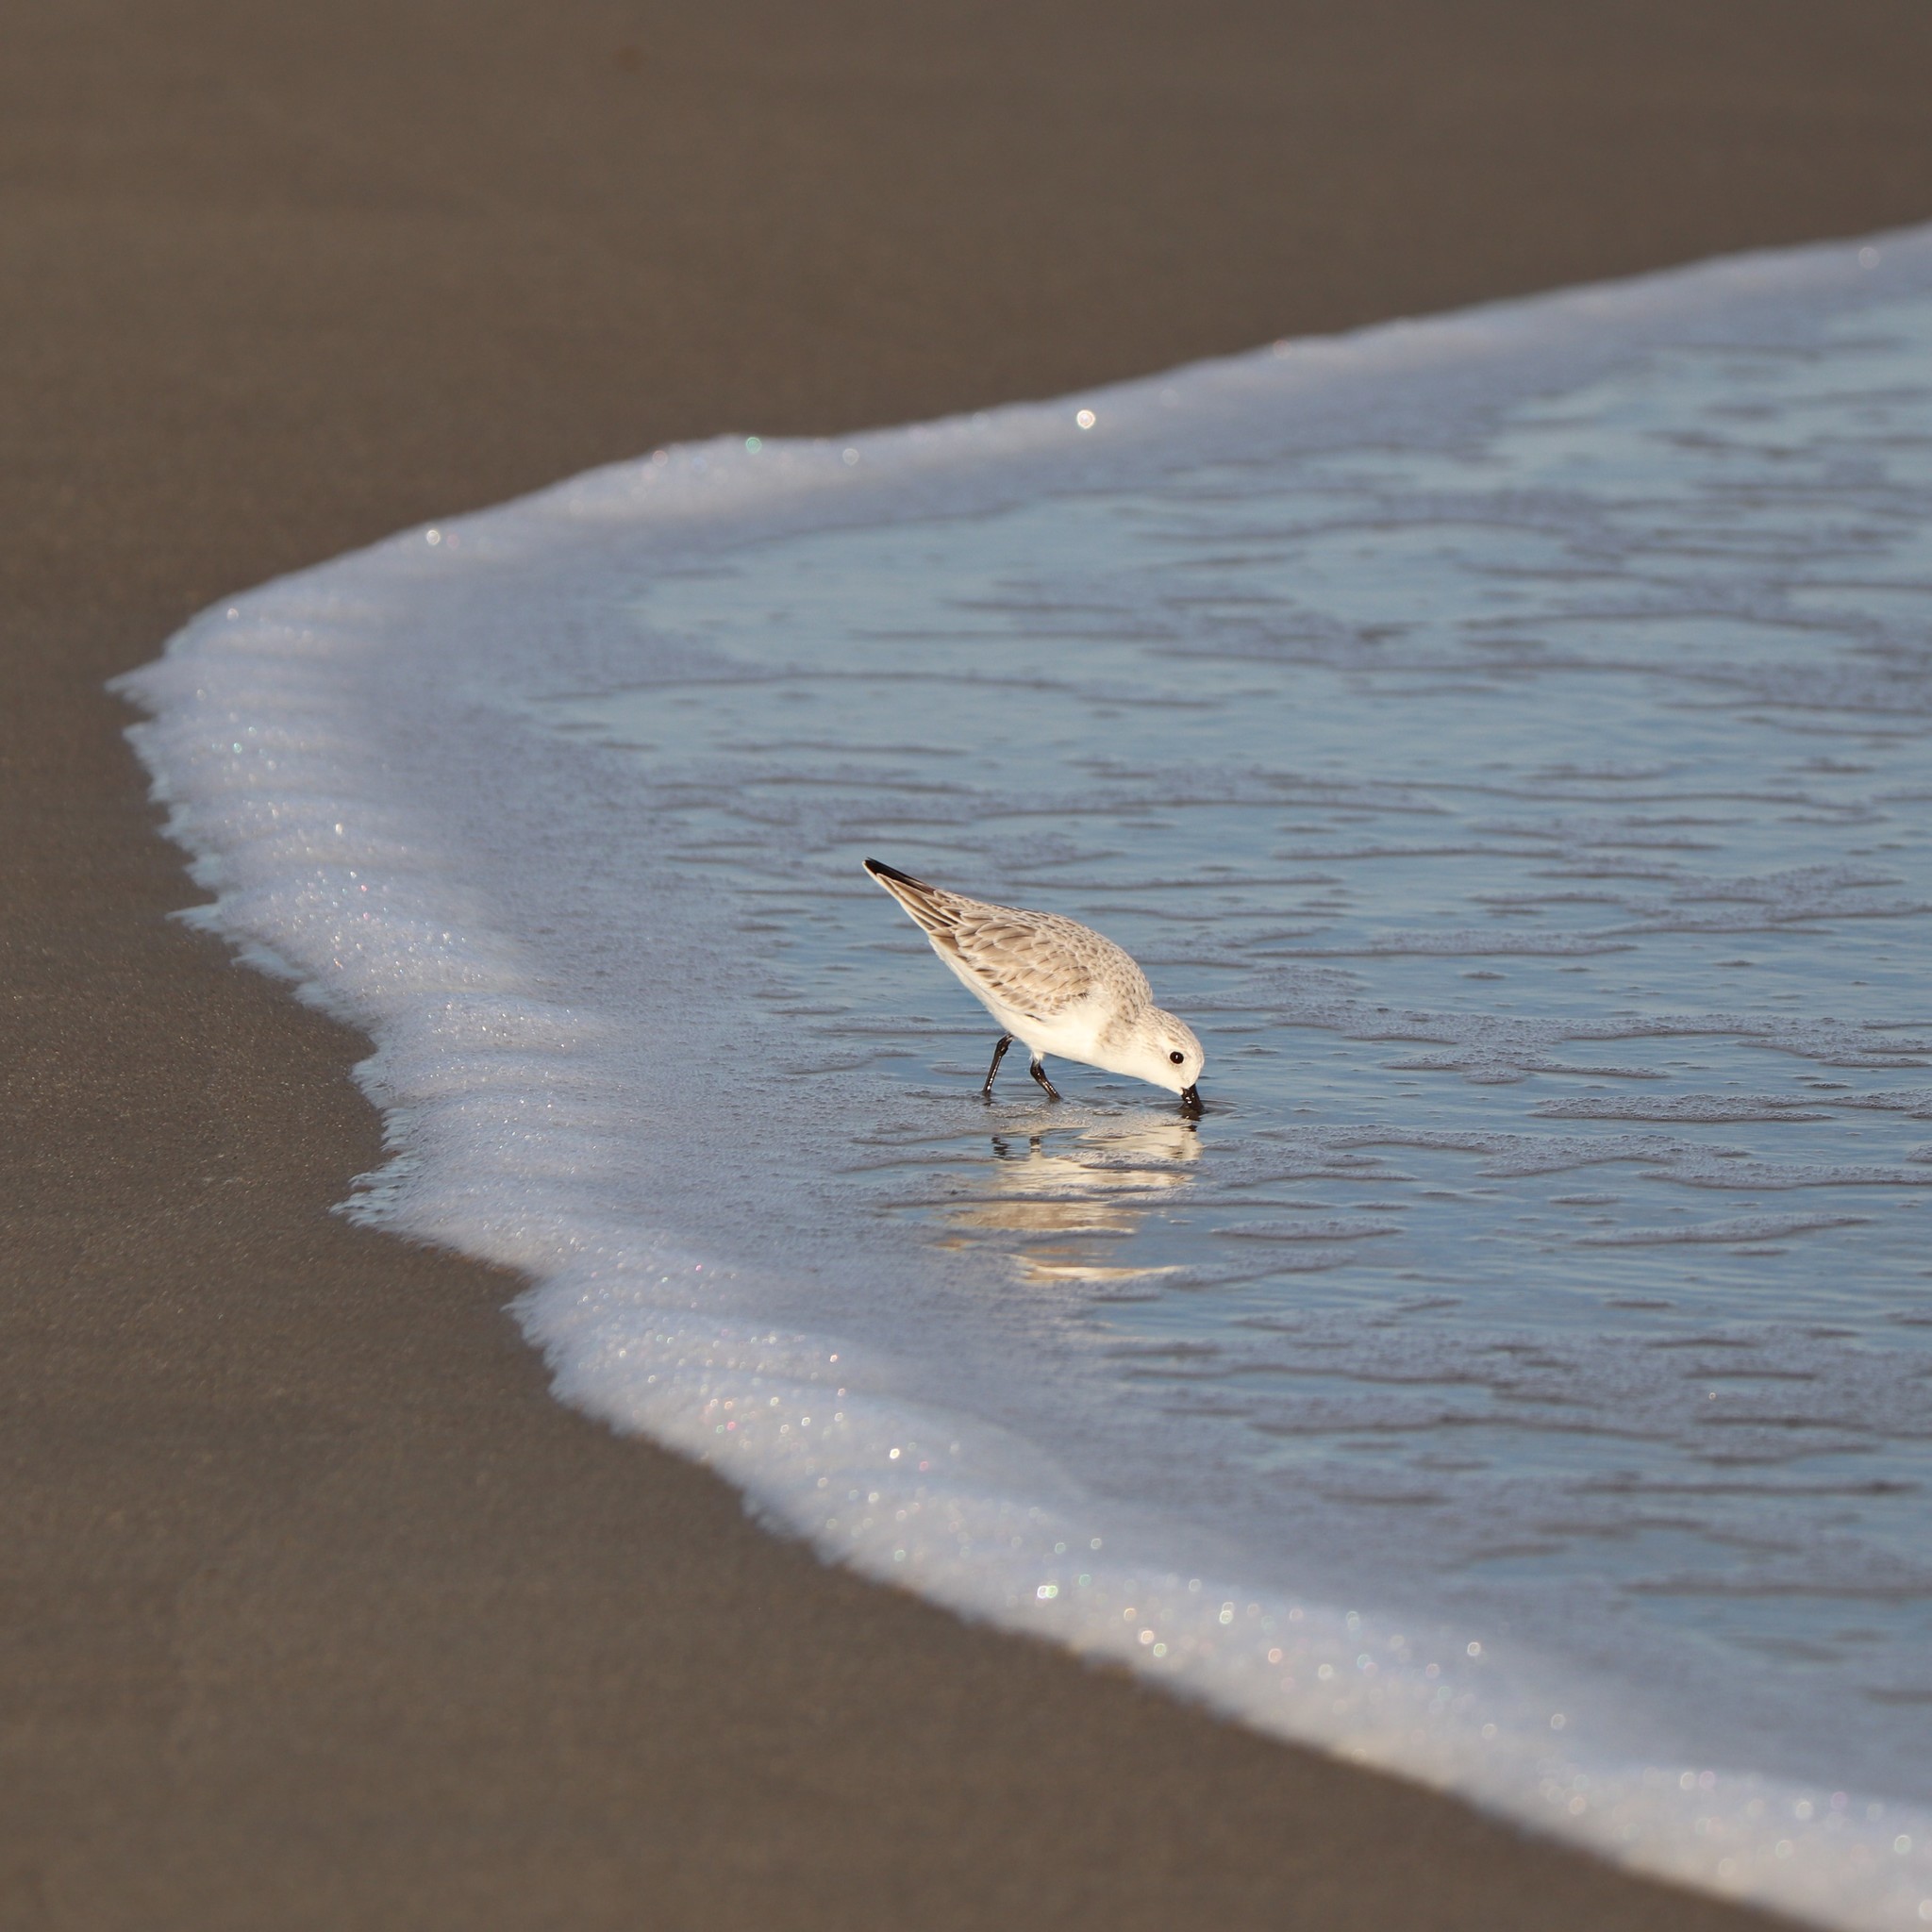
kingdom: Animalia
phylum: Chordata
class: Aves
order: Charadriiformes
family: Scolopacidae
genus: Calidris
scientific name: Calidris alba
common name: Sanderling
